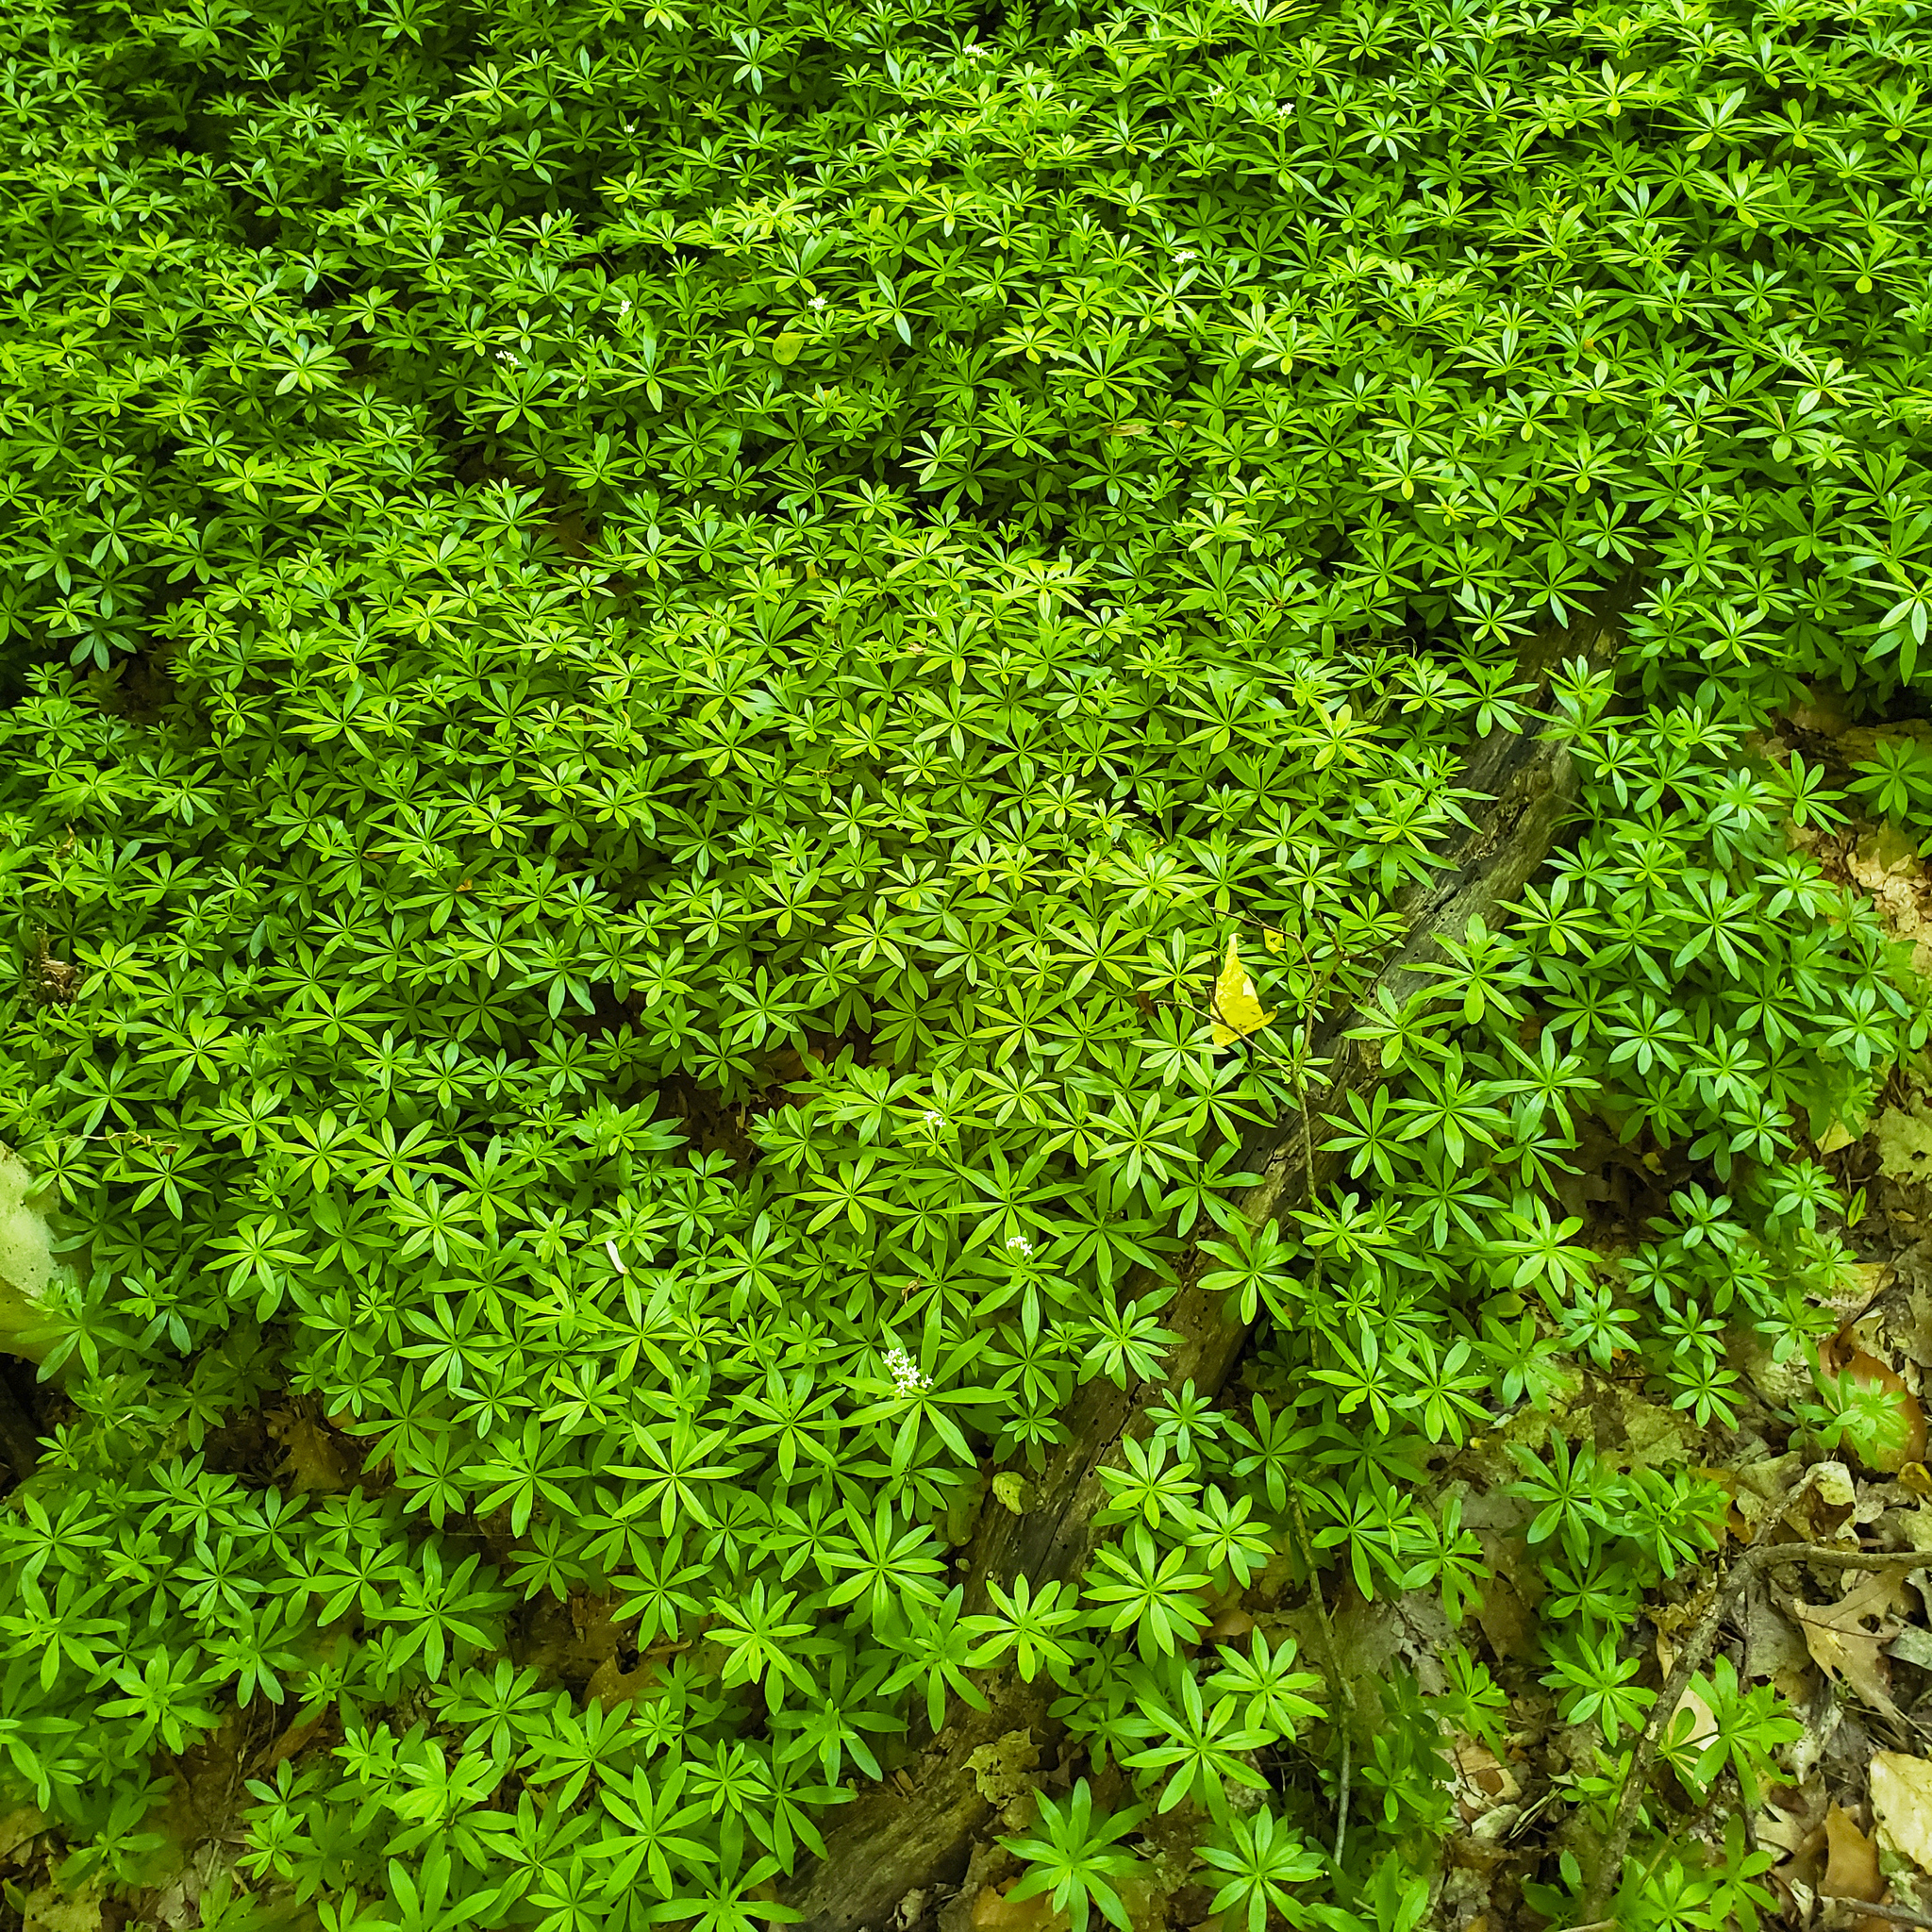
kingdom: Plantae
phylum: Tracheophyta
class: Magnoliopsida
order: Gentianales
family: Rubiaceae
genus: Galium
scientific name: Galium odoratum
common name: Sweet woodruff
